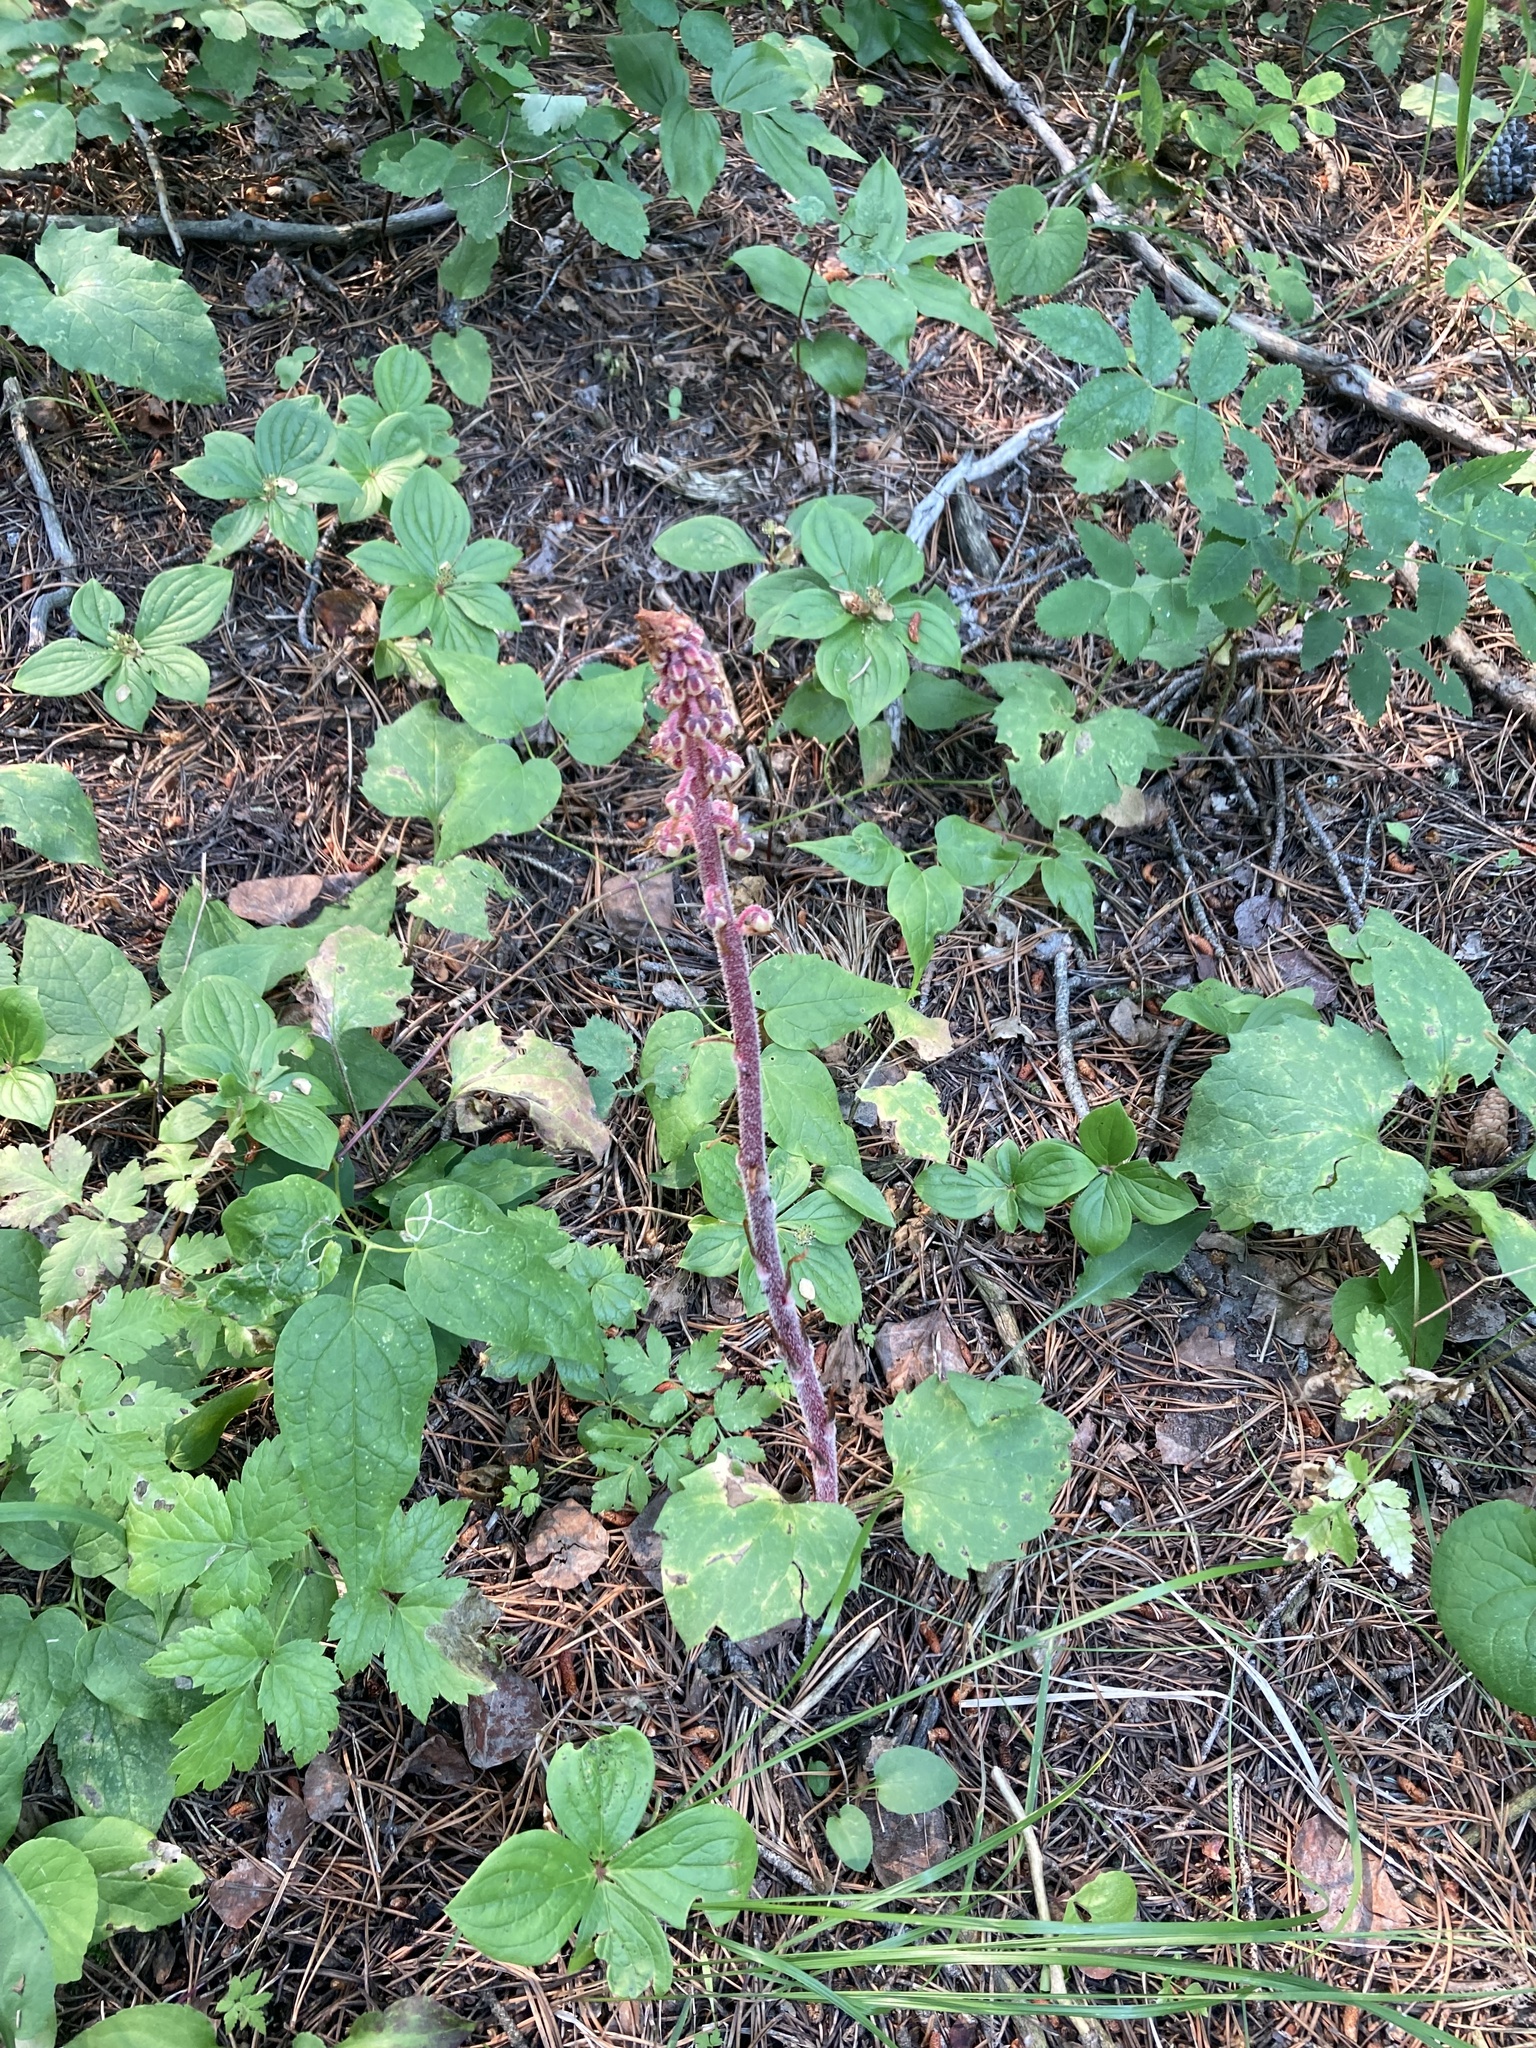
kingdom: Plantae
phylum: Tracheophyta
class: Magnoliopsida
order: Ericales
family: Ericaceae
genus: Pterospora
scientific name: Pterospora andromedea
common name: Giant bird's-nest
